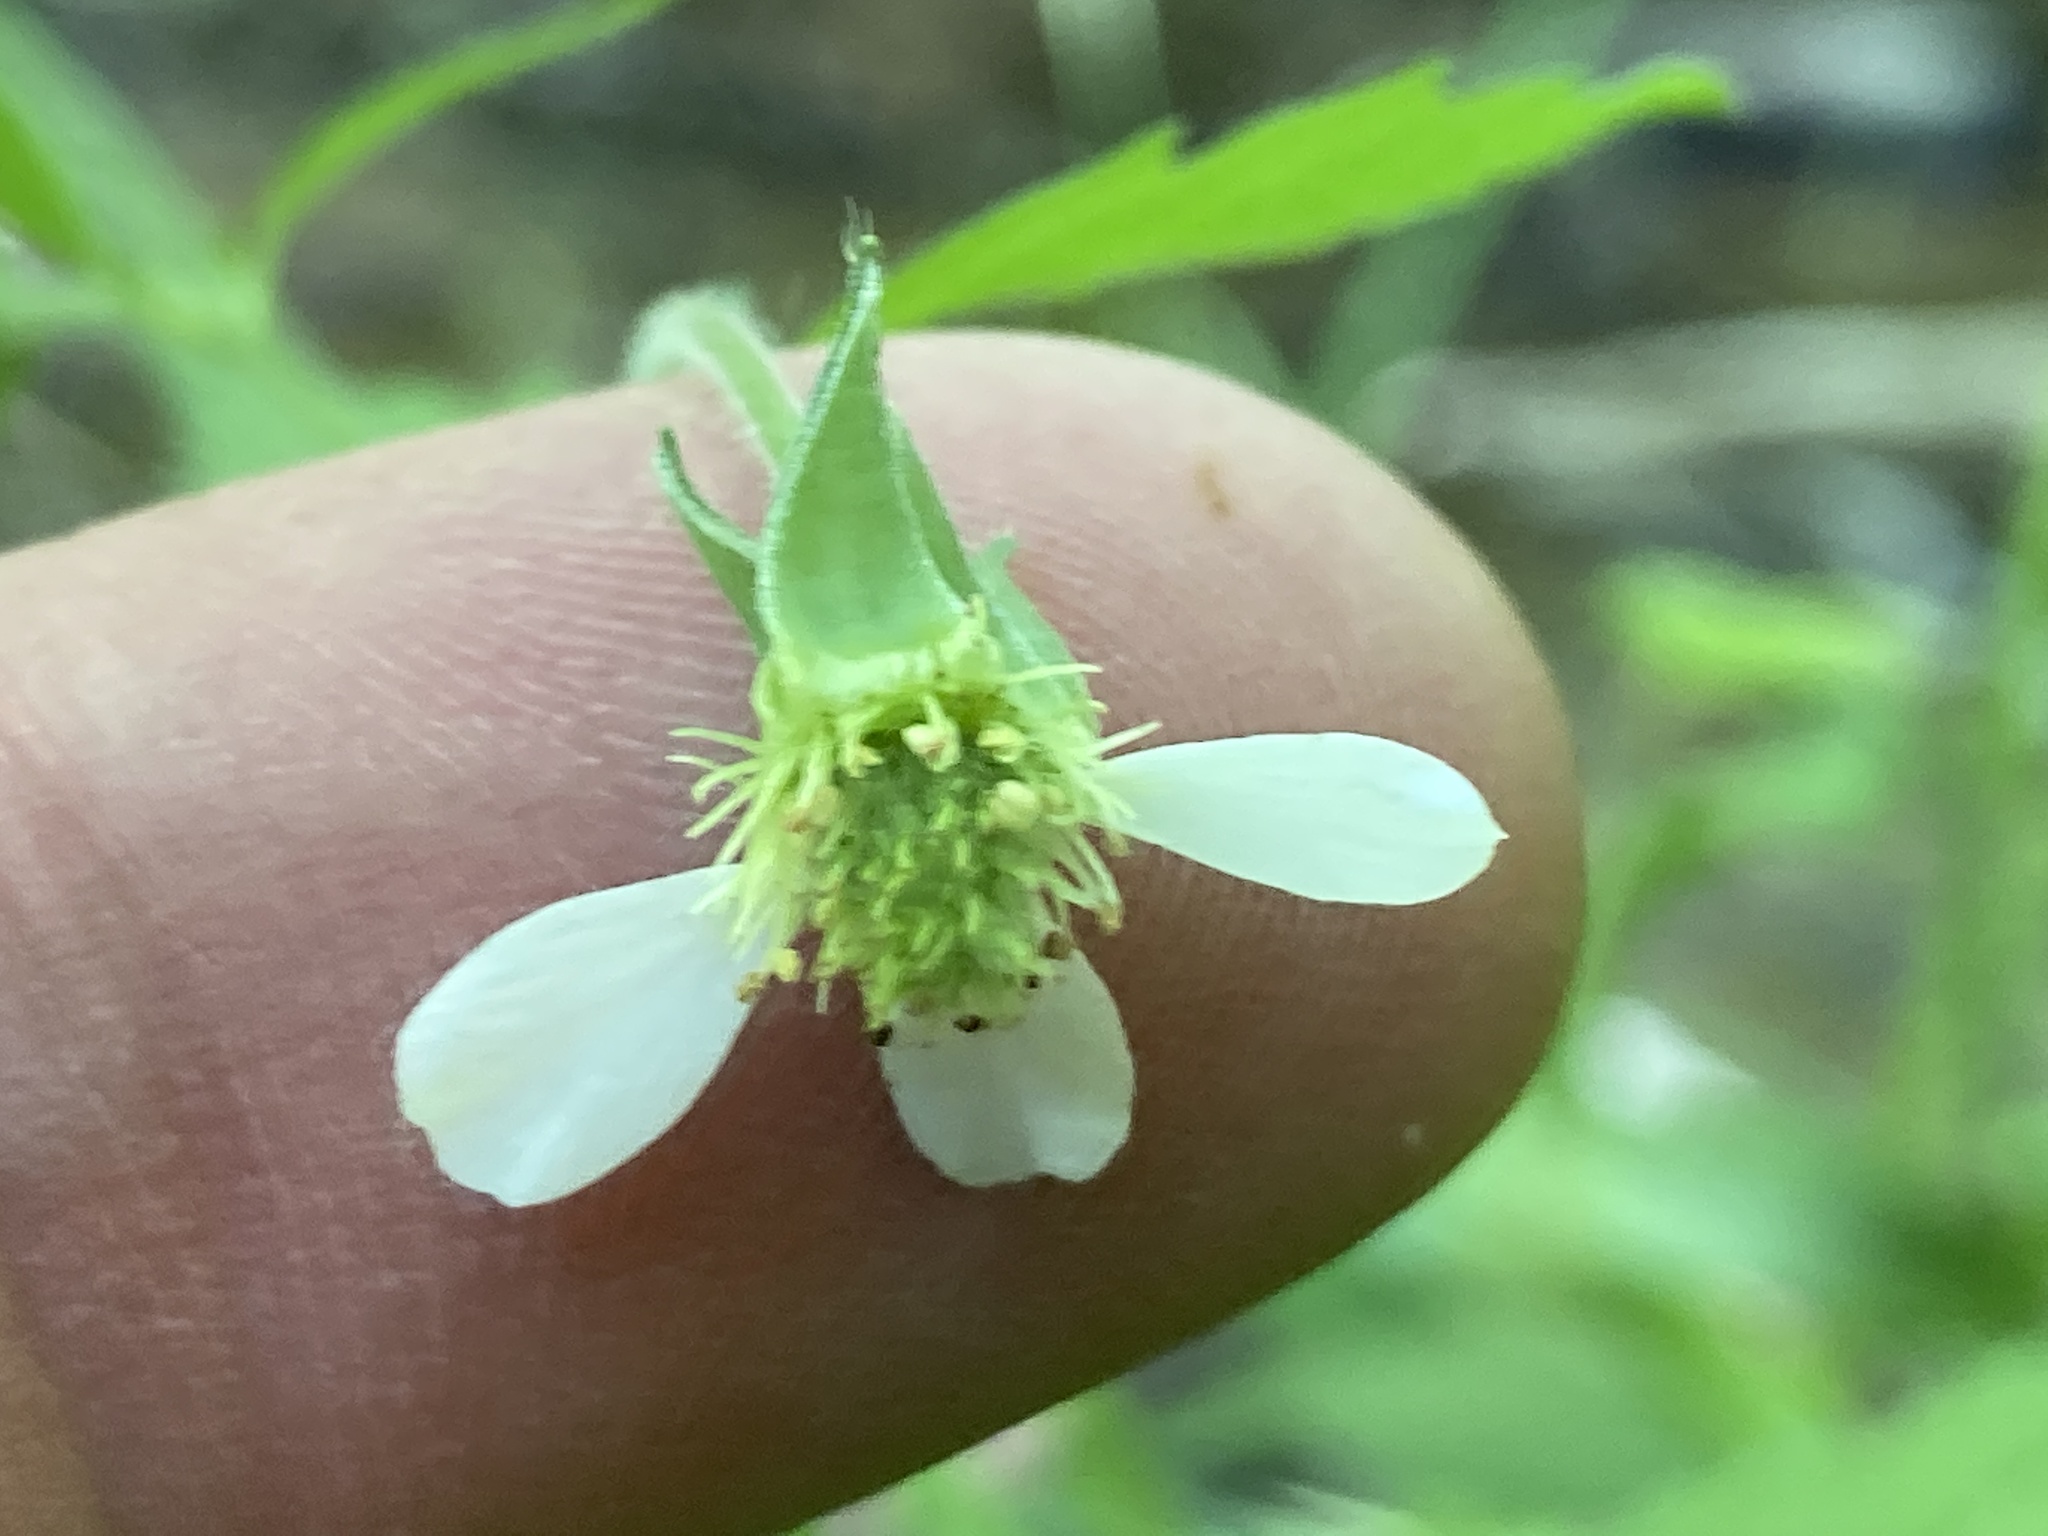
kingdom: Plantae
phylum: Tracheophyta
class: Magnoliopsida
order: Rosales
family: Rosaceae
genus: Geum
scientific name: Geum canadense
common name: White avens
